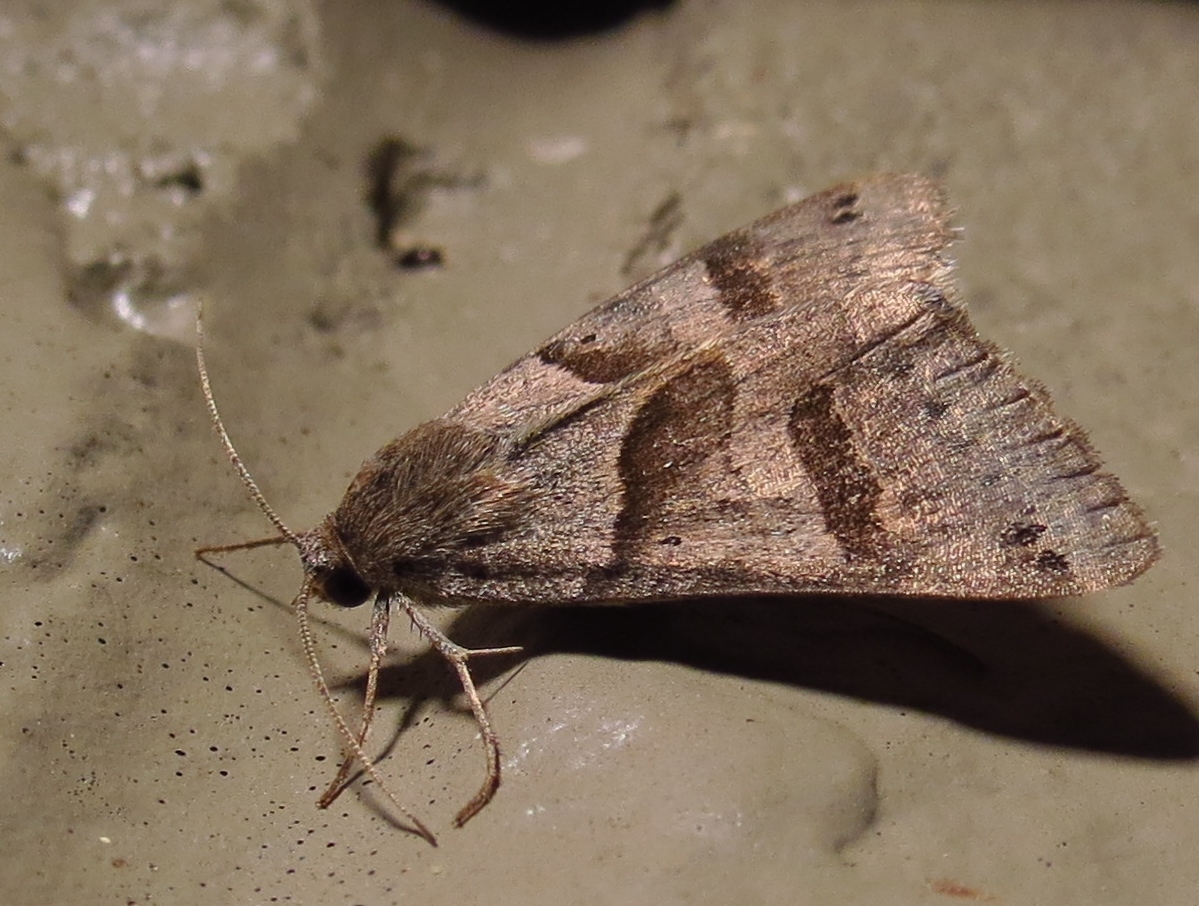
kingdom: Animalia
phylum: Arthropoda
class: Insecta
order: Lepidoptera
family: Erebidae
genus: Caenurgina
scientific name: Caenurgina erechtea
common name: Forage looper moth
